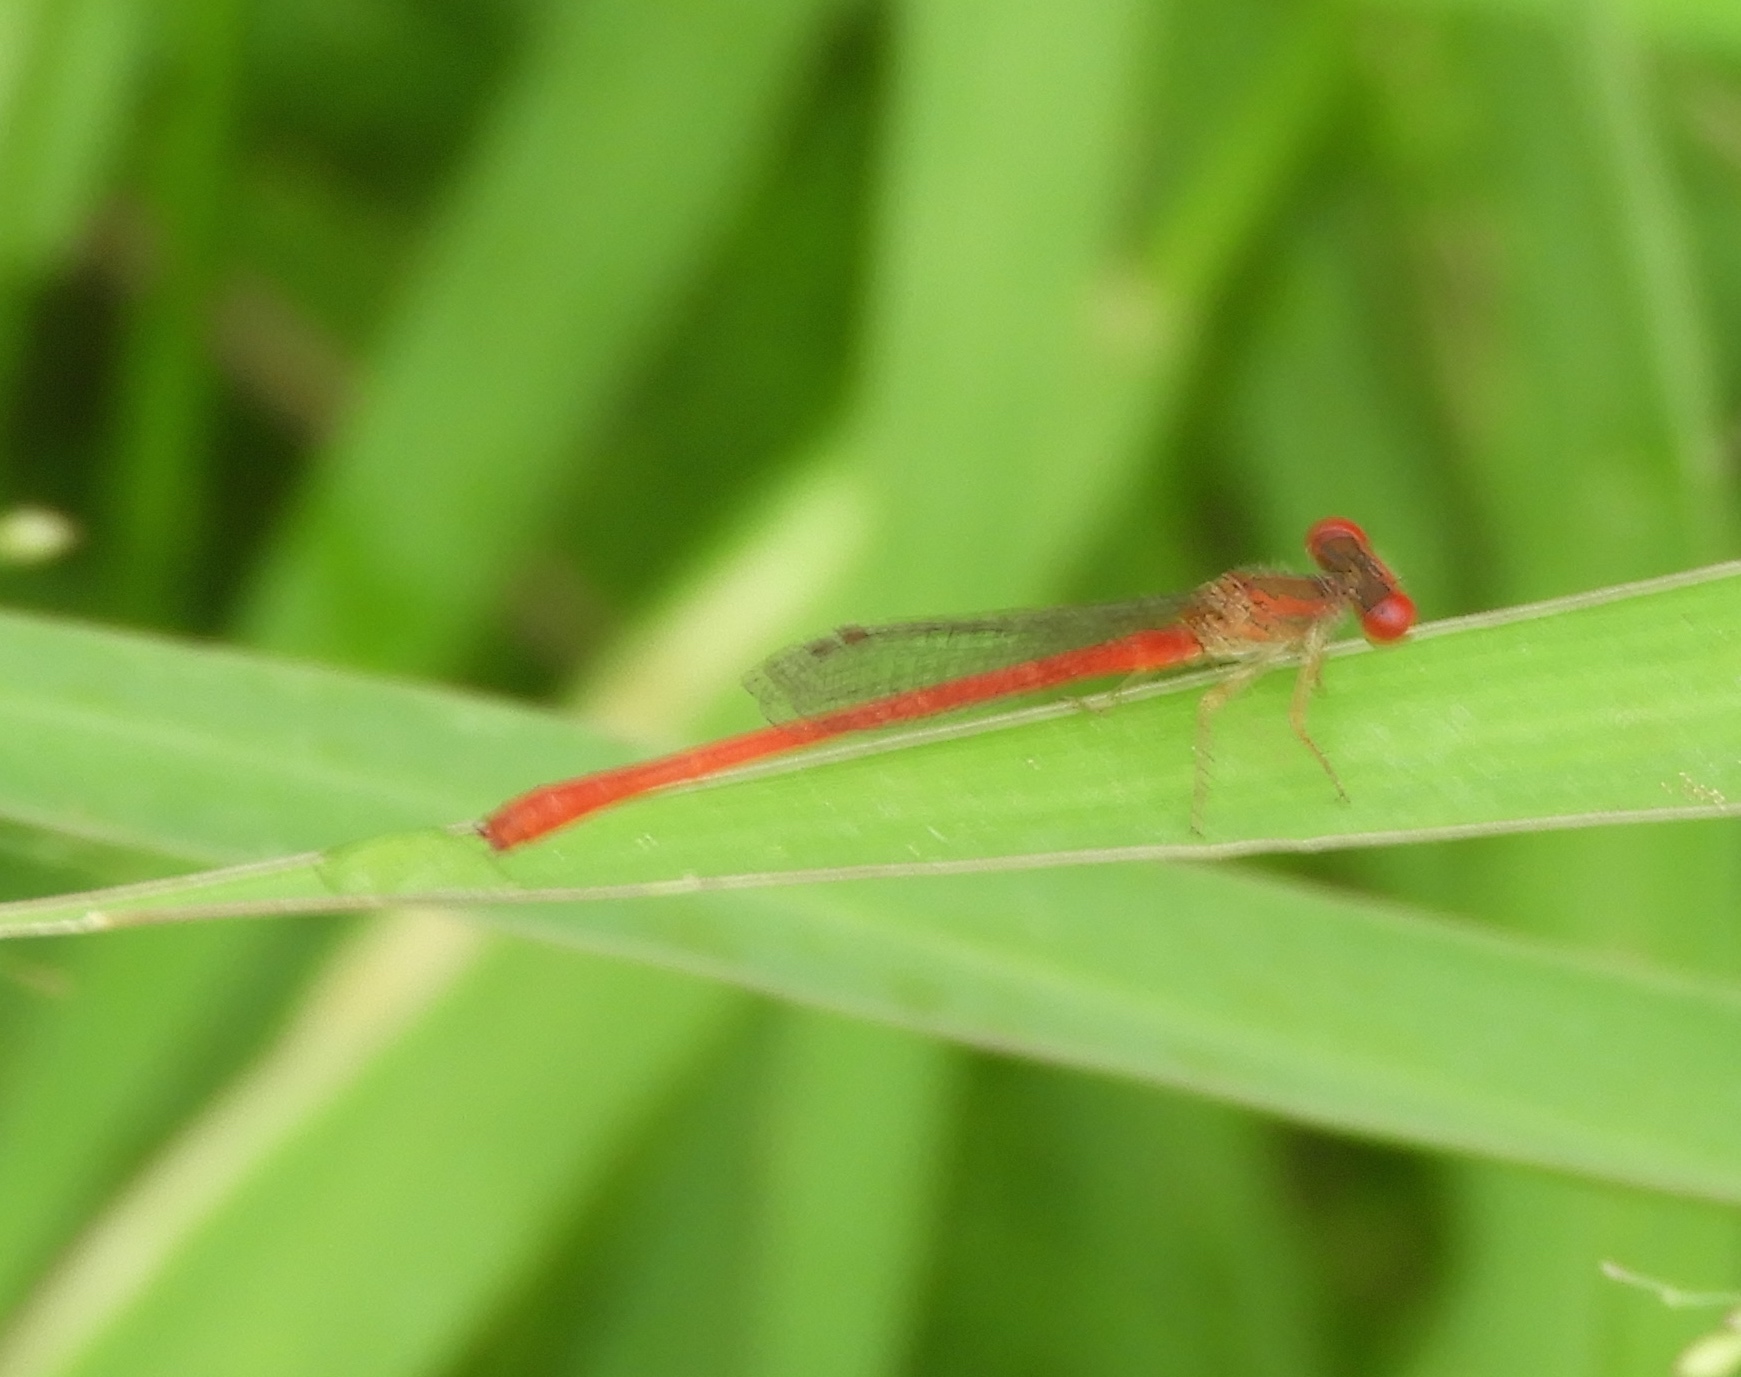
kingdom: Animalia
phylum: Arthropoda
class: Insecta
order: Odonata
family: Coenagrionidae
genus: Telebasis
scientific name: Telebasis salva
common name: Desert firetail
